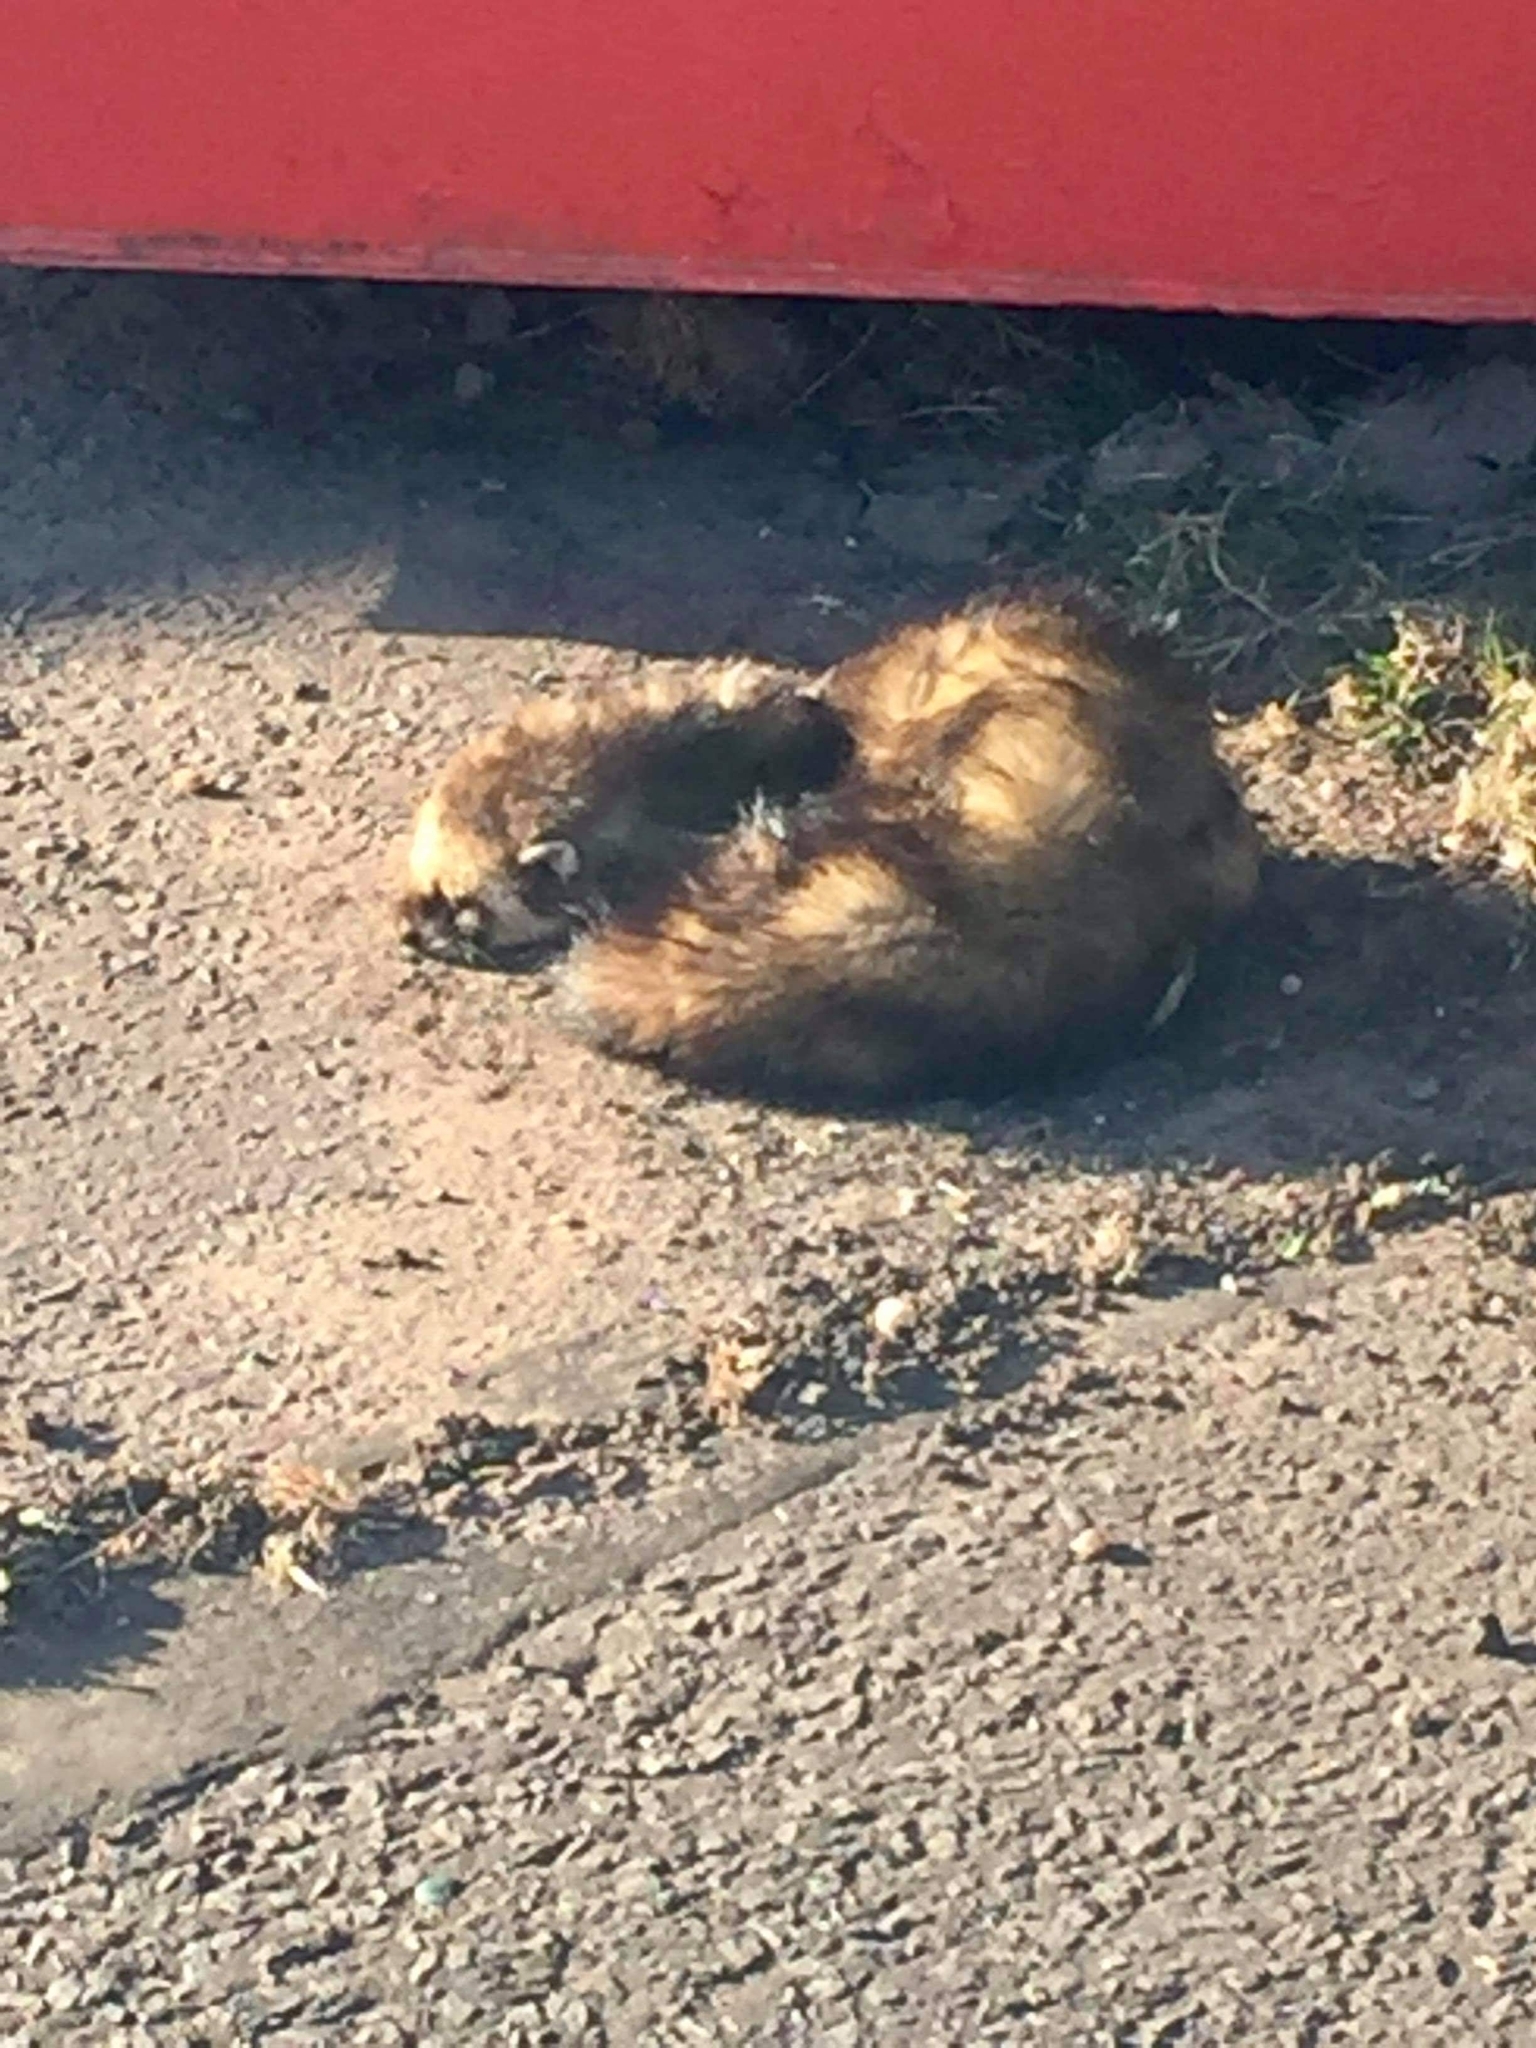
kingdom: Animalia
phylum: Chordata
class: Mammalia
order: Carnivora
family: Mustelidae
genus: Mustela
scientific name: Mustela putorius
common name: European polecat
